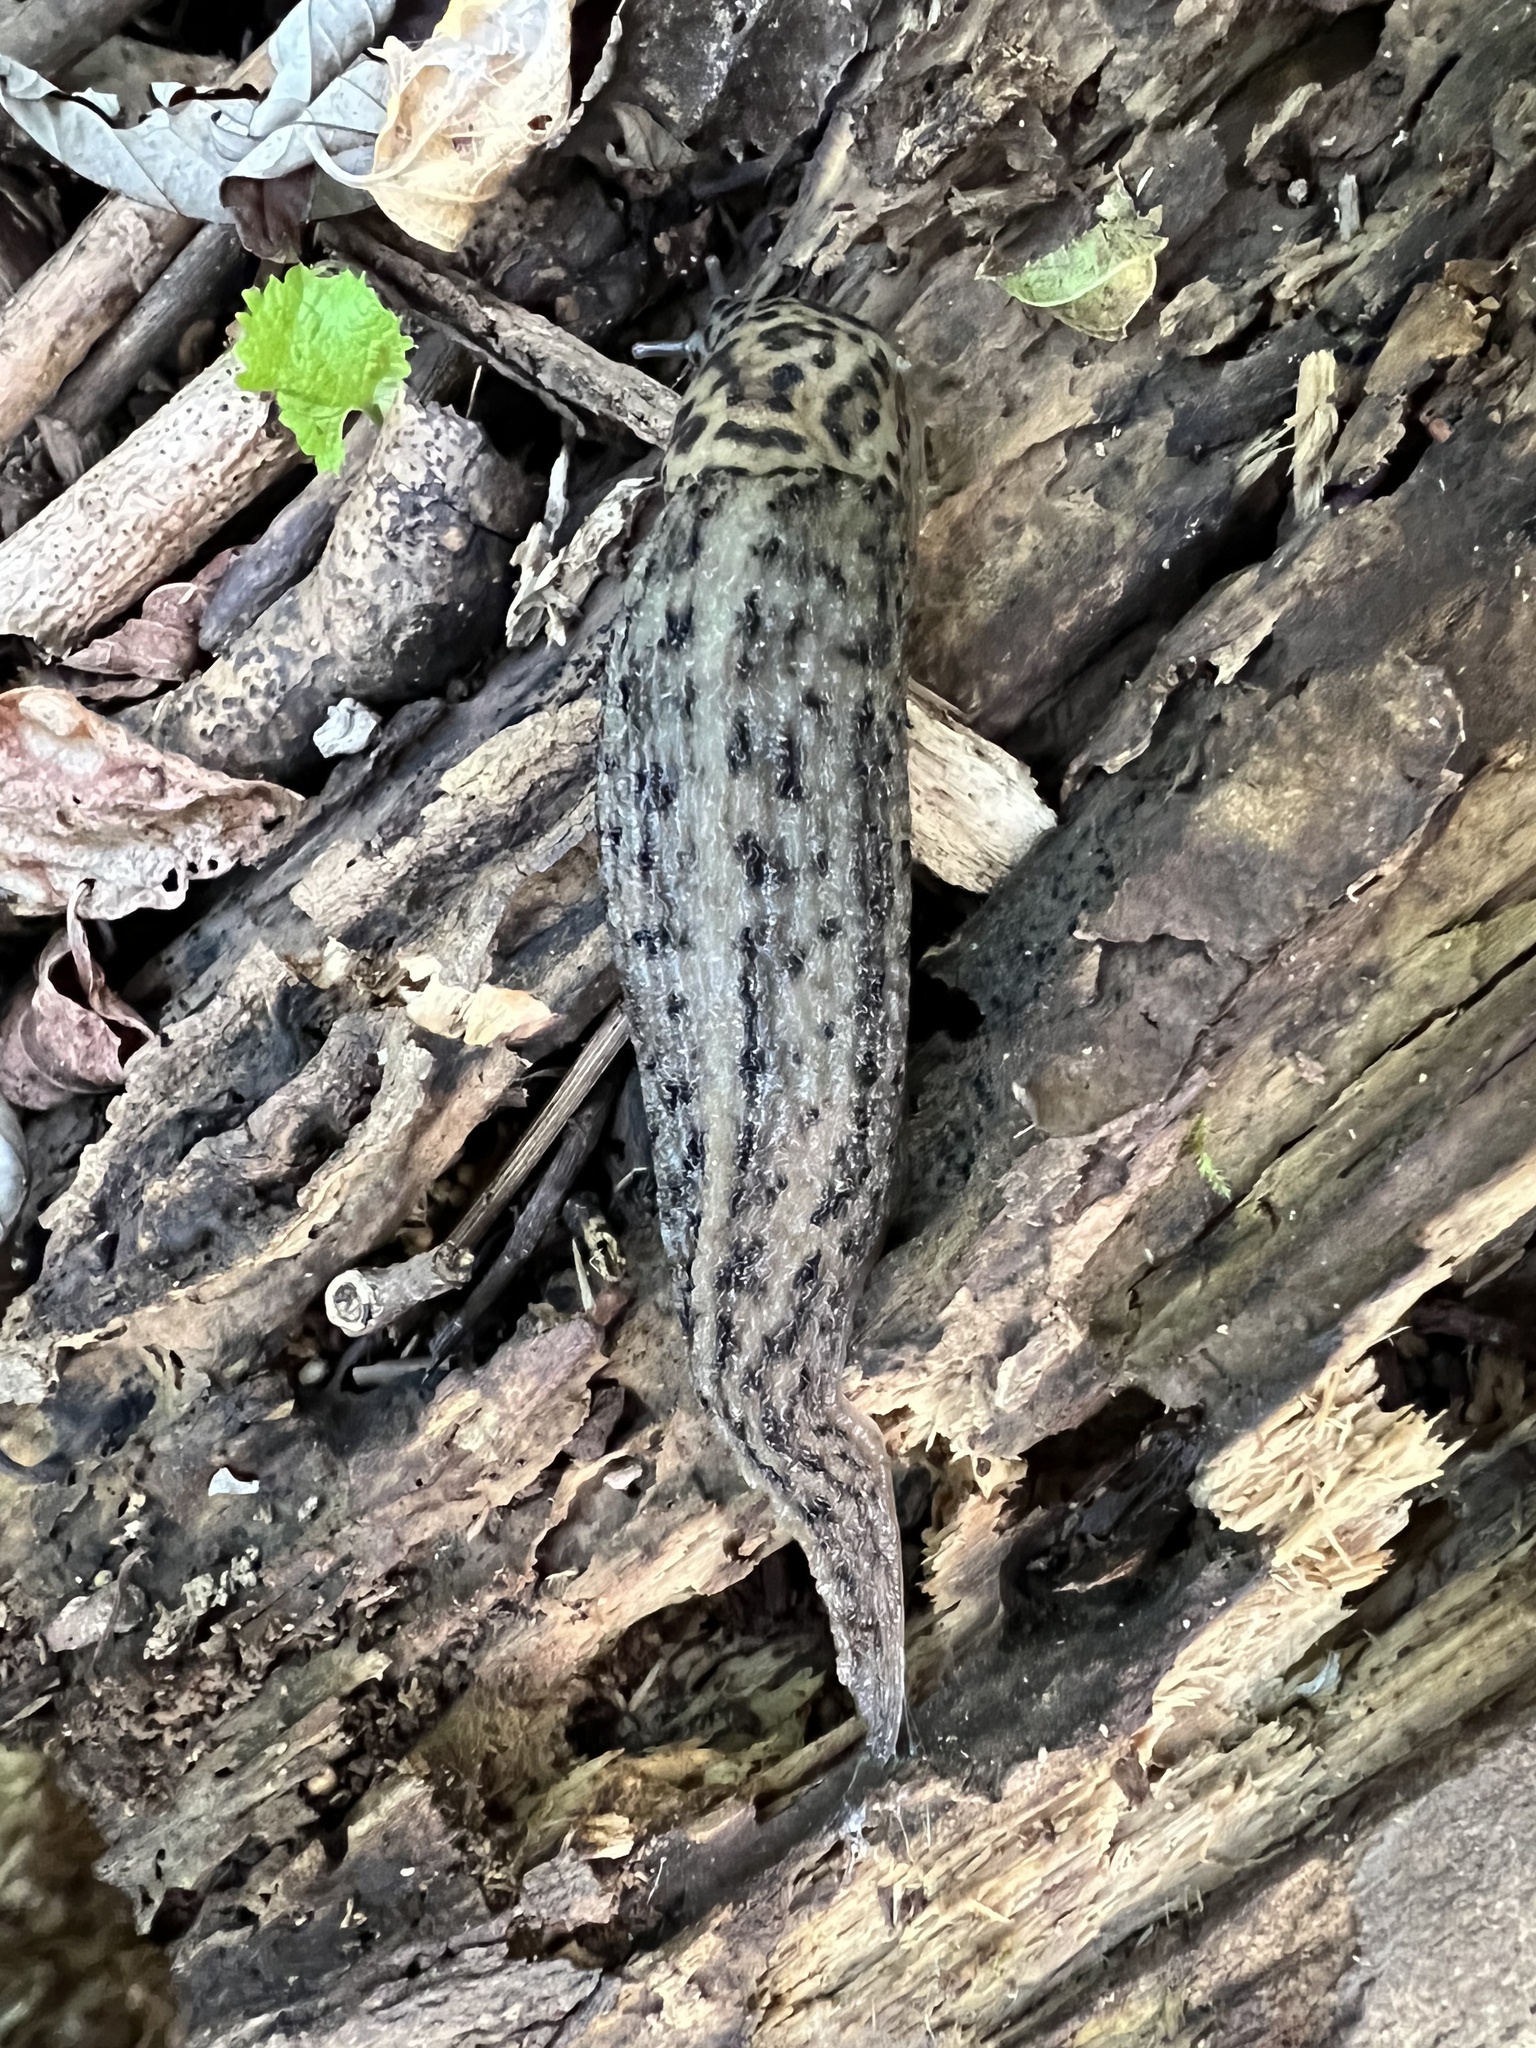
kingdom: Animalia
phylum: Mollusca
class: Gastropoda
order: Stylommatophora
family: Limacidae
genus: Limax
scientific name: Limax maximus
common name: Great grey slug
